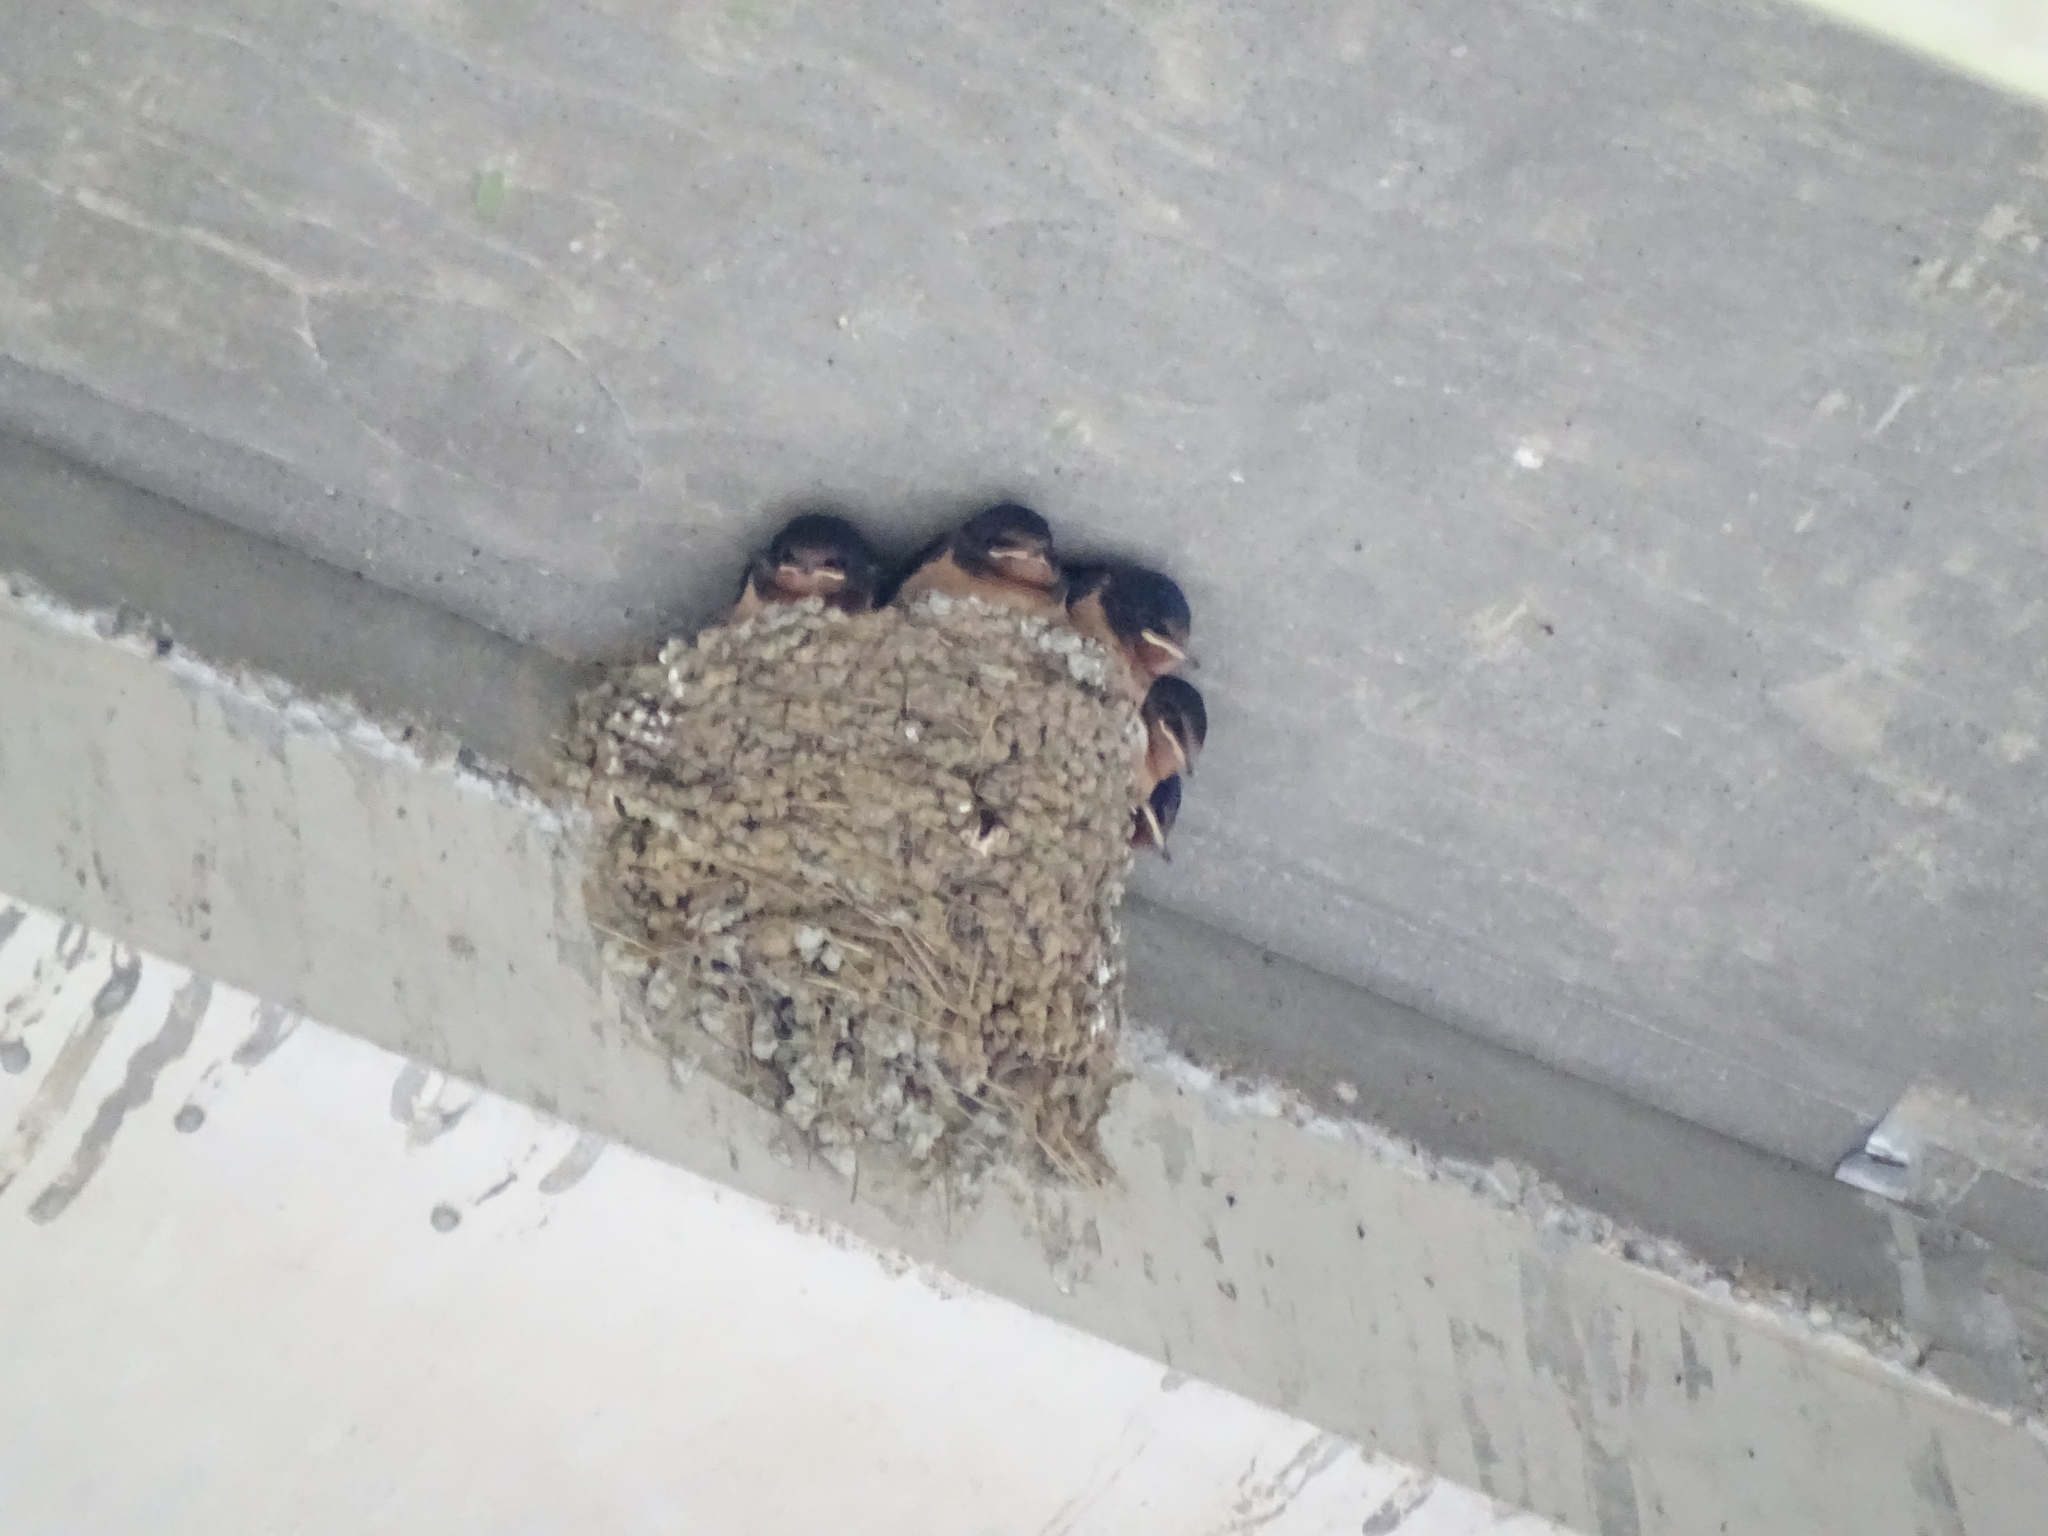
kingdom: Animalia
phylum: Chordata
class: Aves
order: Passeriformes
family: Hirundinidae
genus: Hirundo
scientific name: Hirundo rustica
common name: Barn swallow
